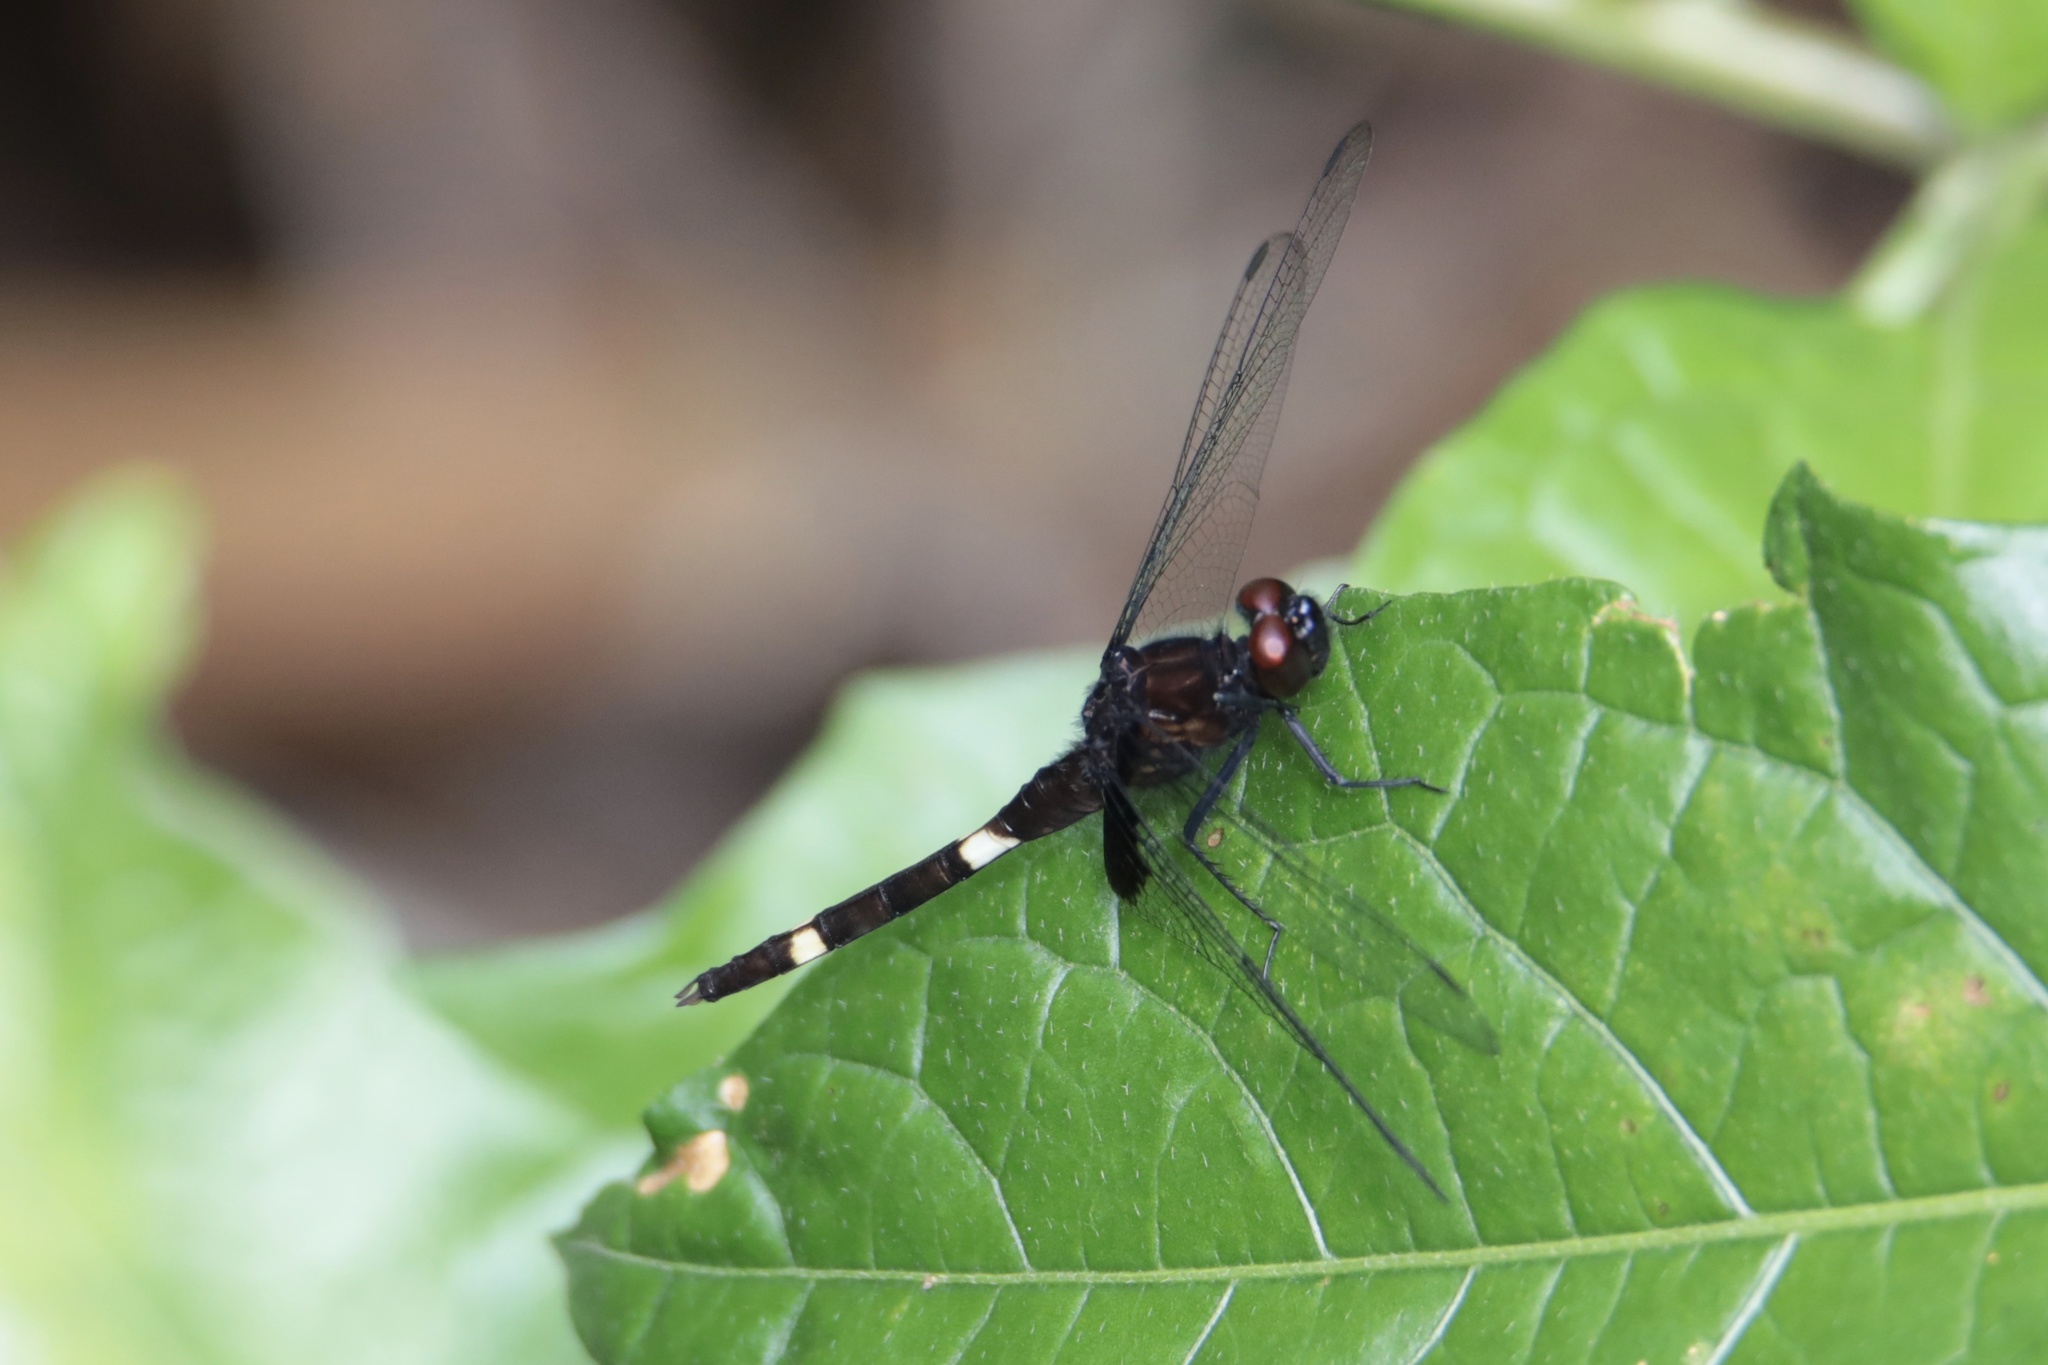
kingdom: Animalia
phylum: Arthropoda
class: Insecta
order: Odonata
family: Libellulidae
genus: Erythemis
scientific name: Erythemis attala
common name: Black pondhawk
